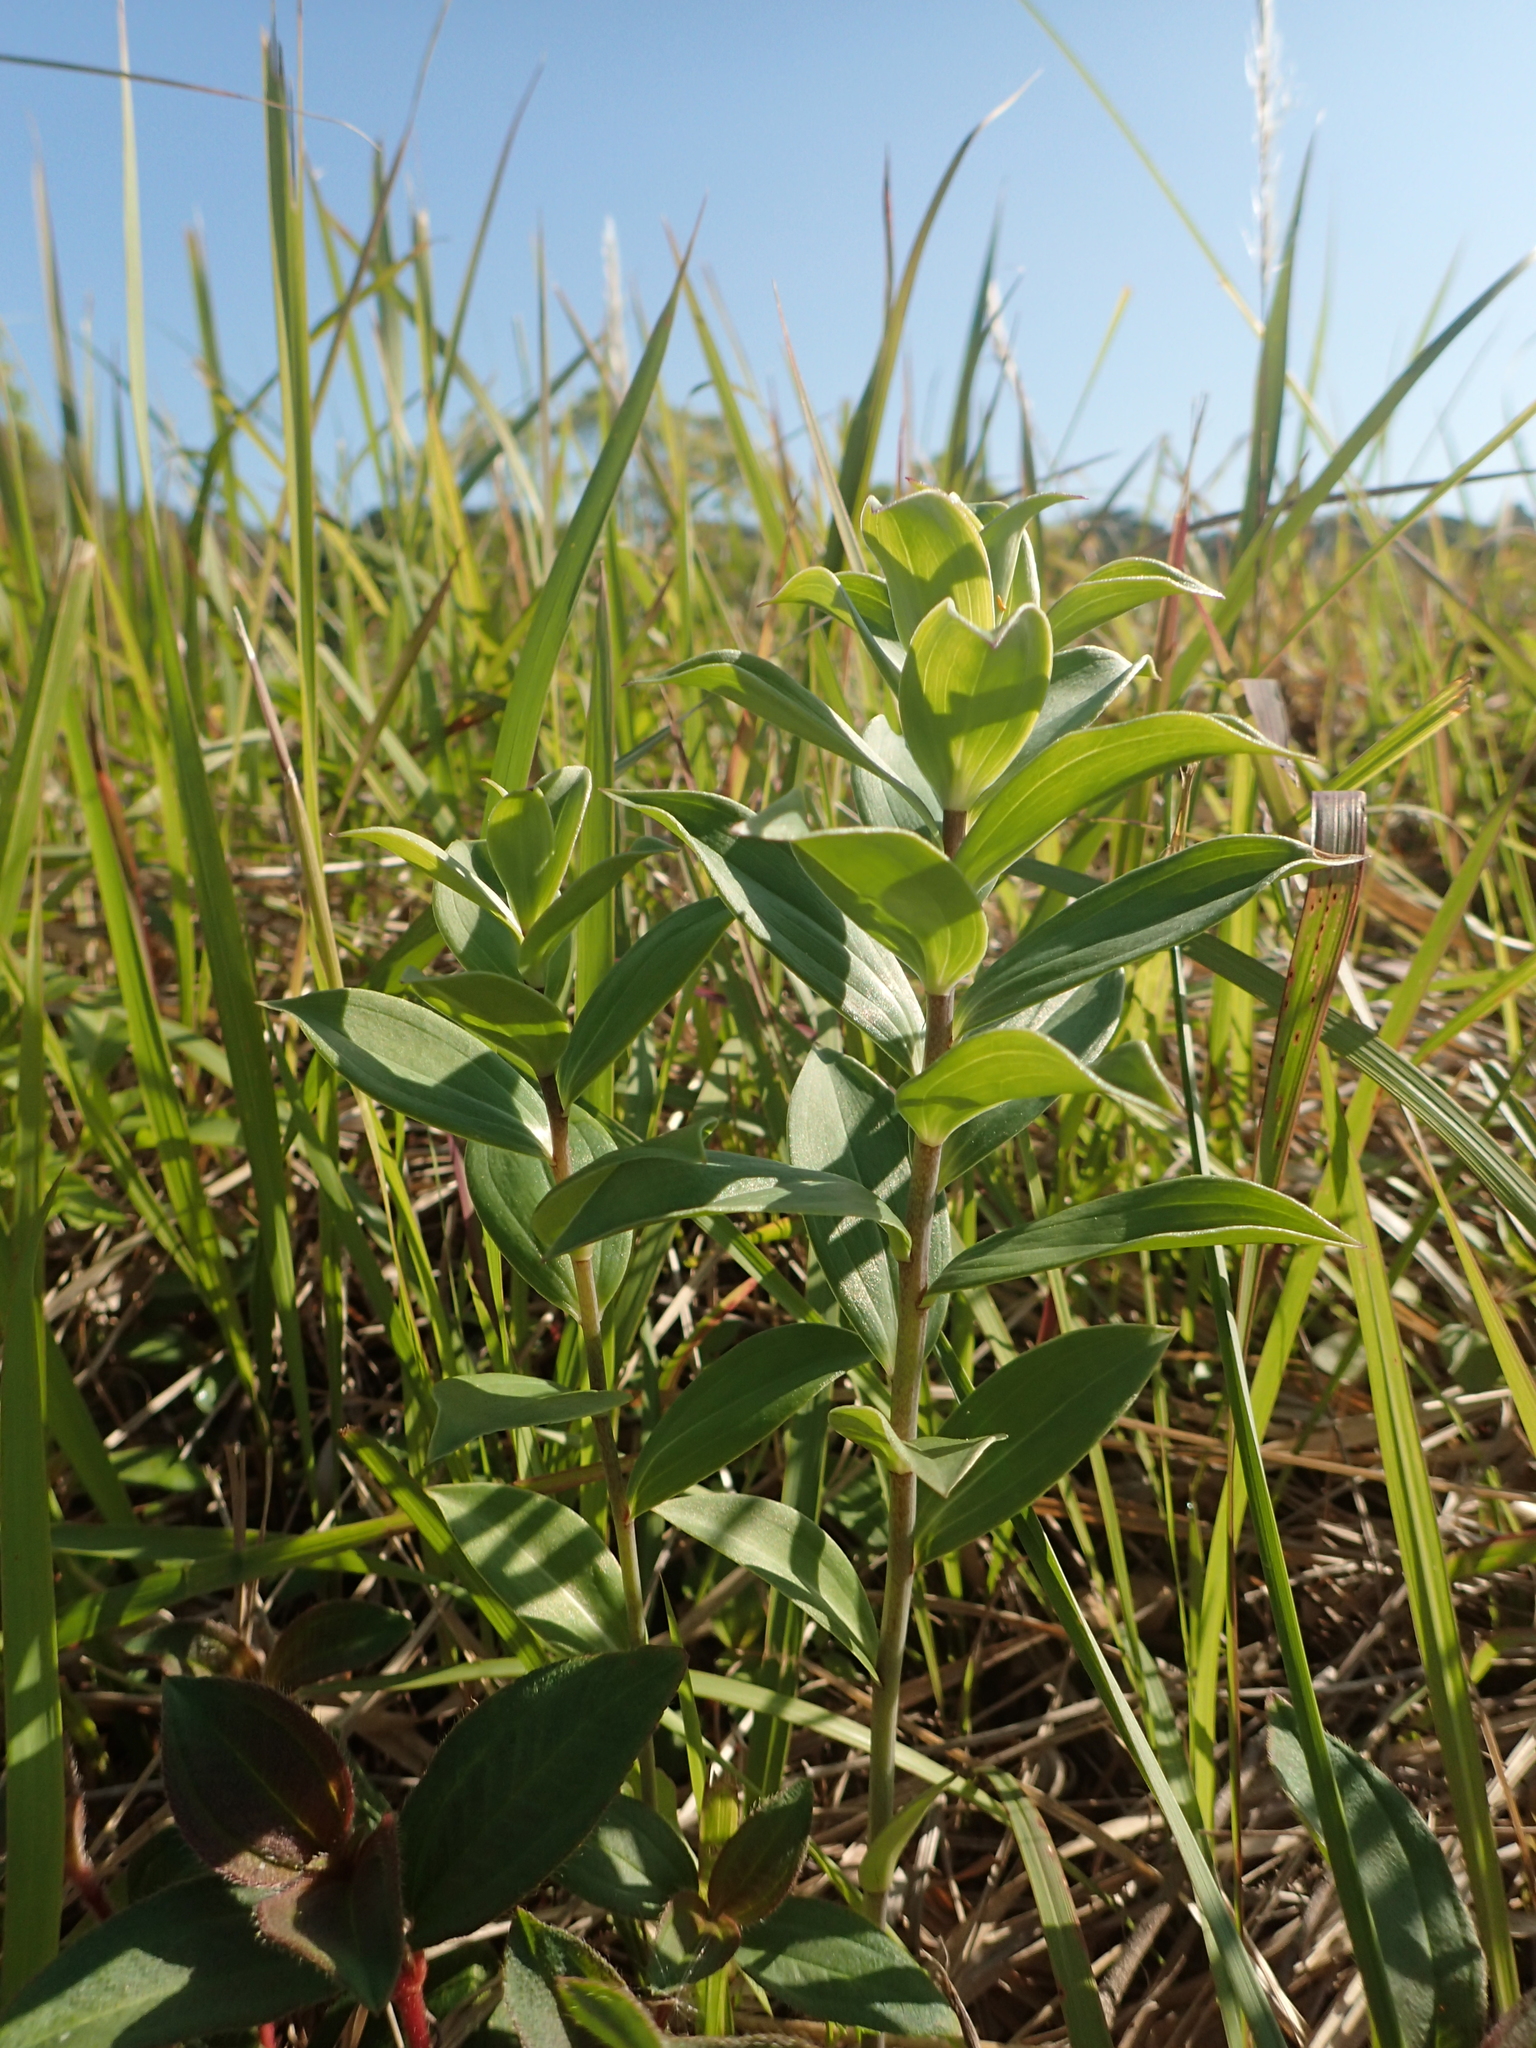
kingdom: Plantae
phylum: Tracheophyta
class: Liliopsida
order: Liliales
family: Liliaceae
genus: Lilium
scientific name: Lilium brownii
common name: Brown's lily
